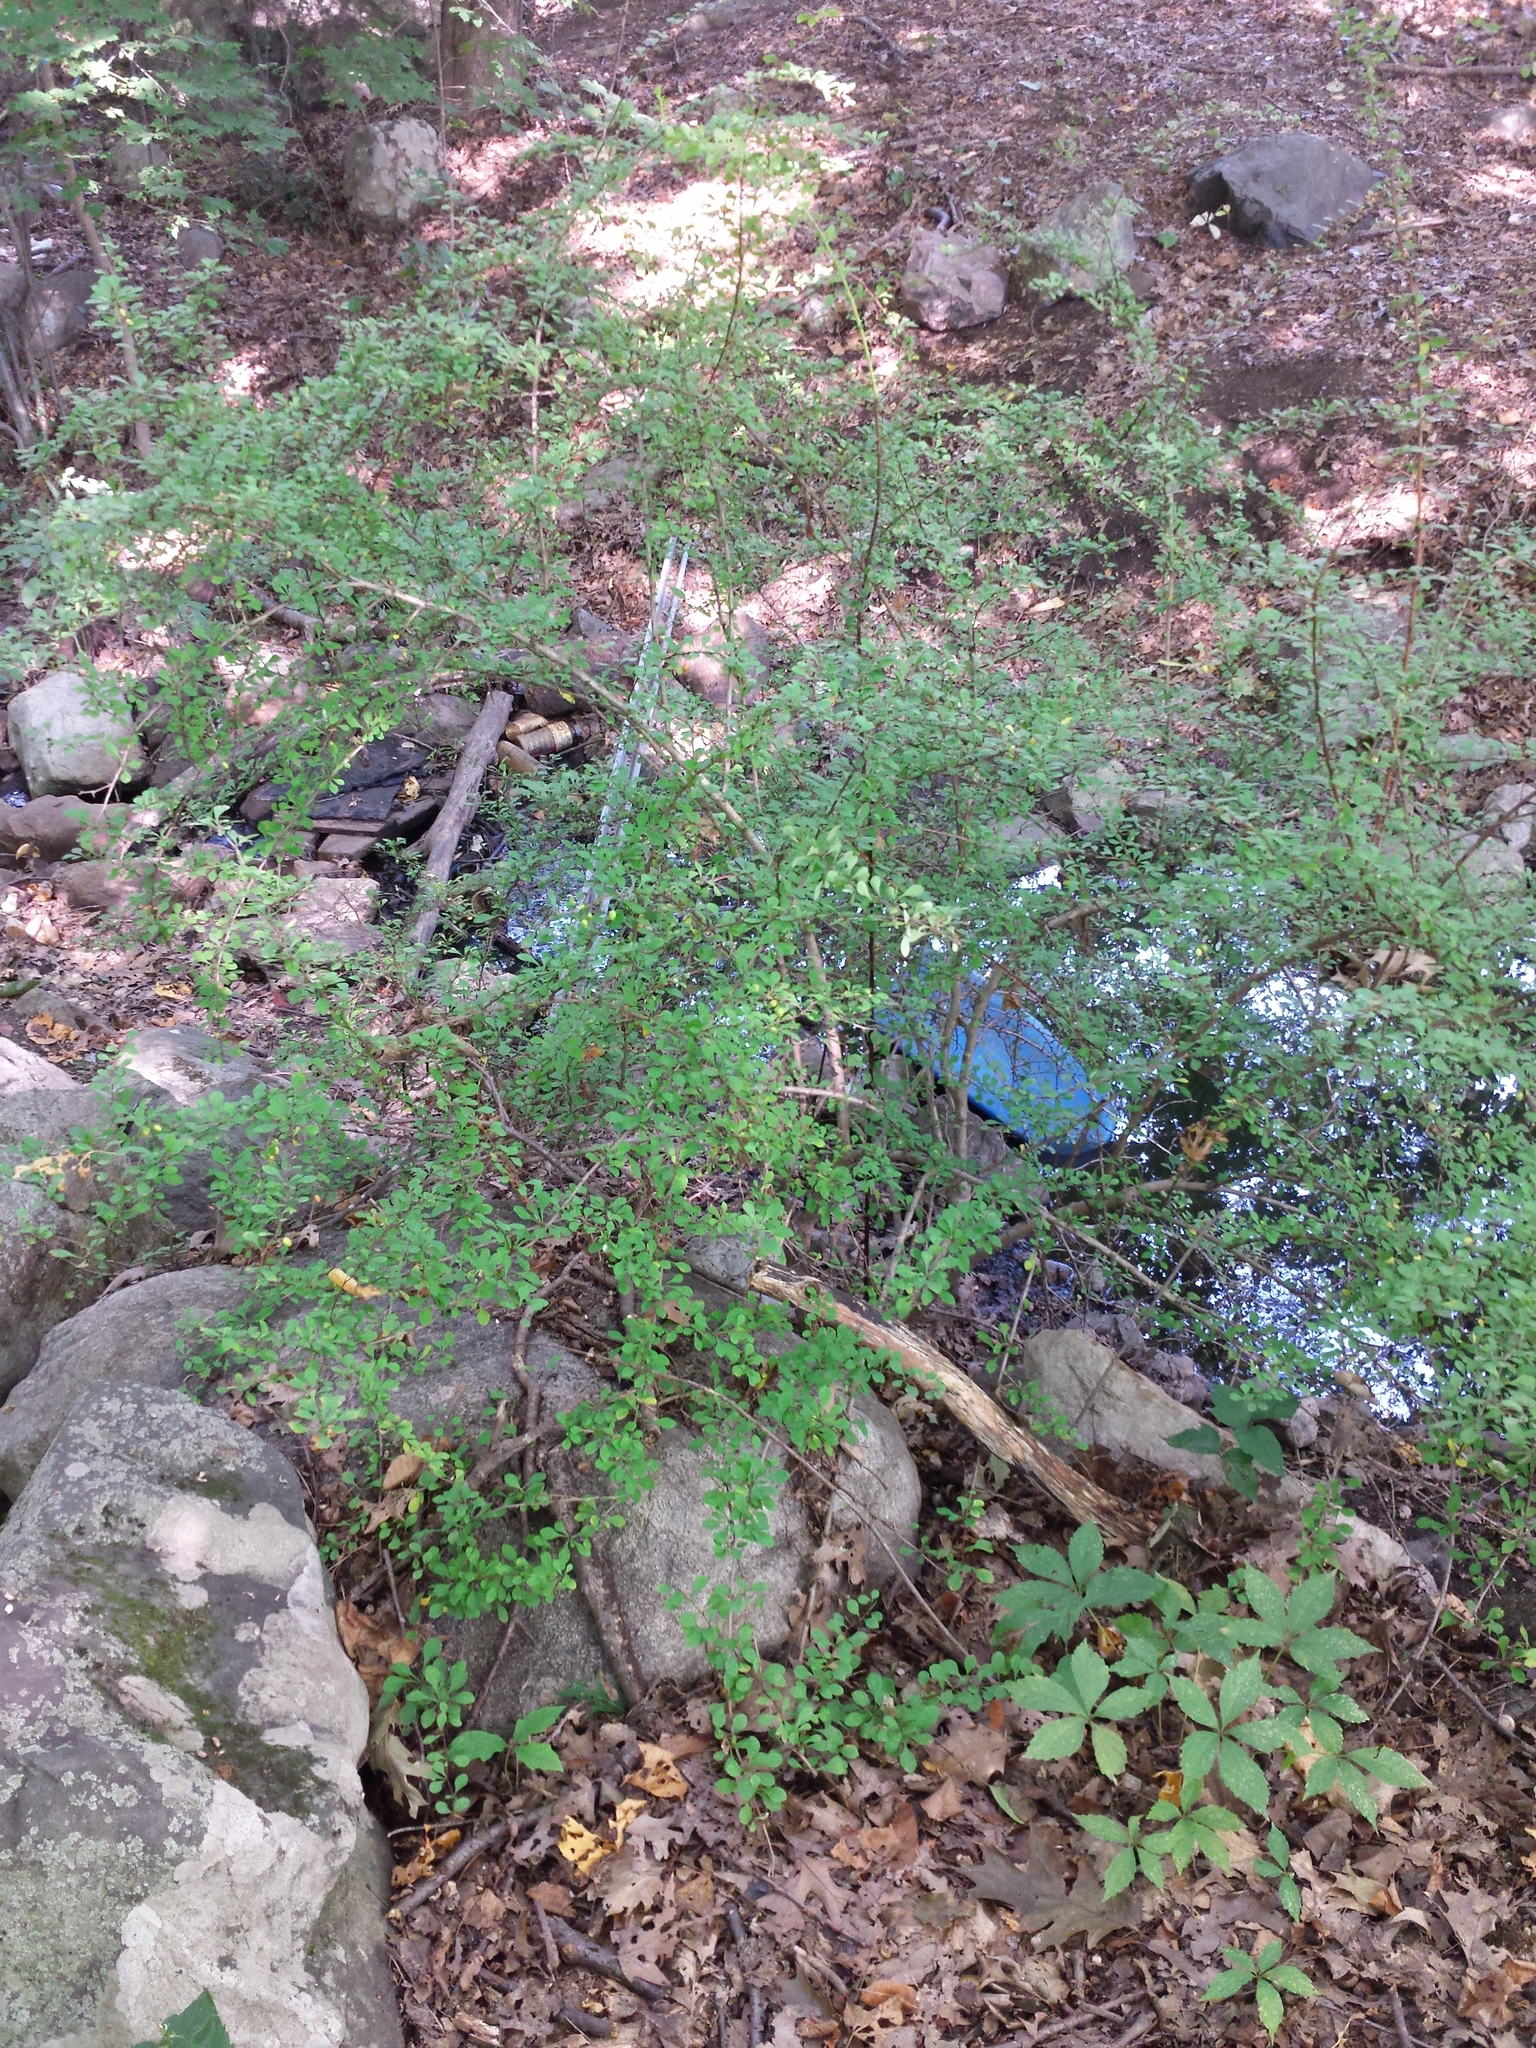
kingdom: Plantae
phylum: Tracheophyta
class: Magnoliopsida
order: Ranunculales
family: Berberidaceae
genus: Berberis
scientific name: Berberis thunbergii
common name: Japanese barberry
